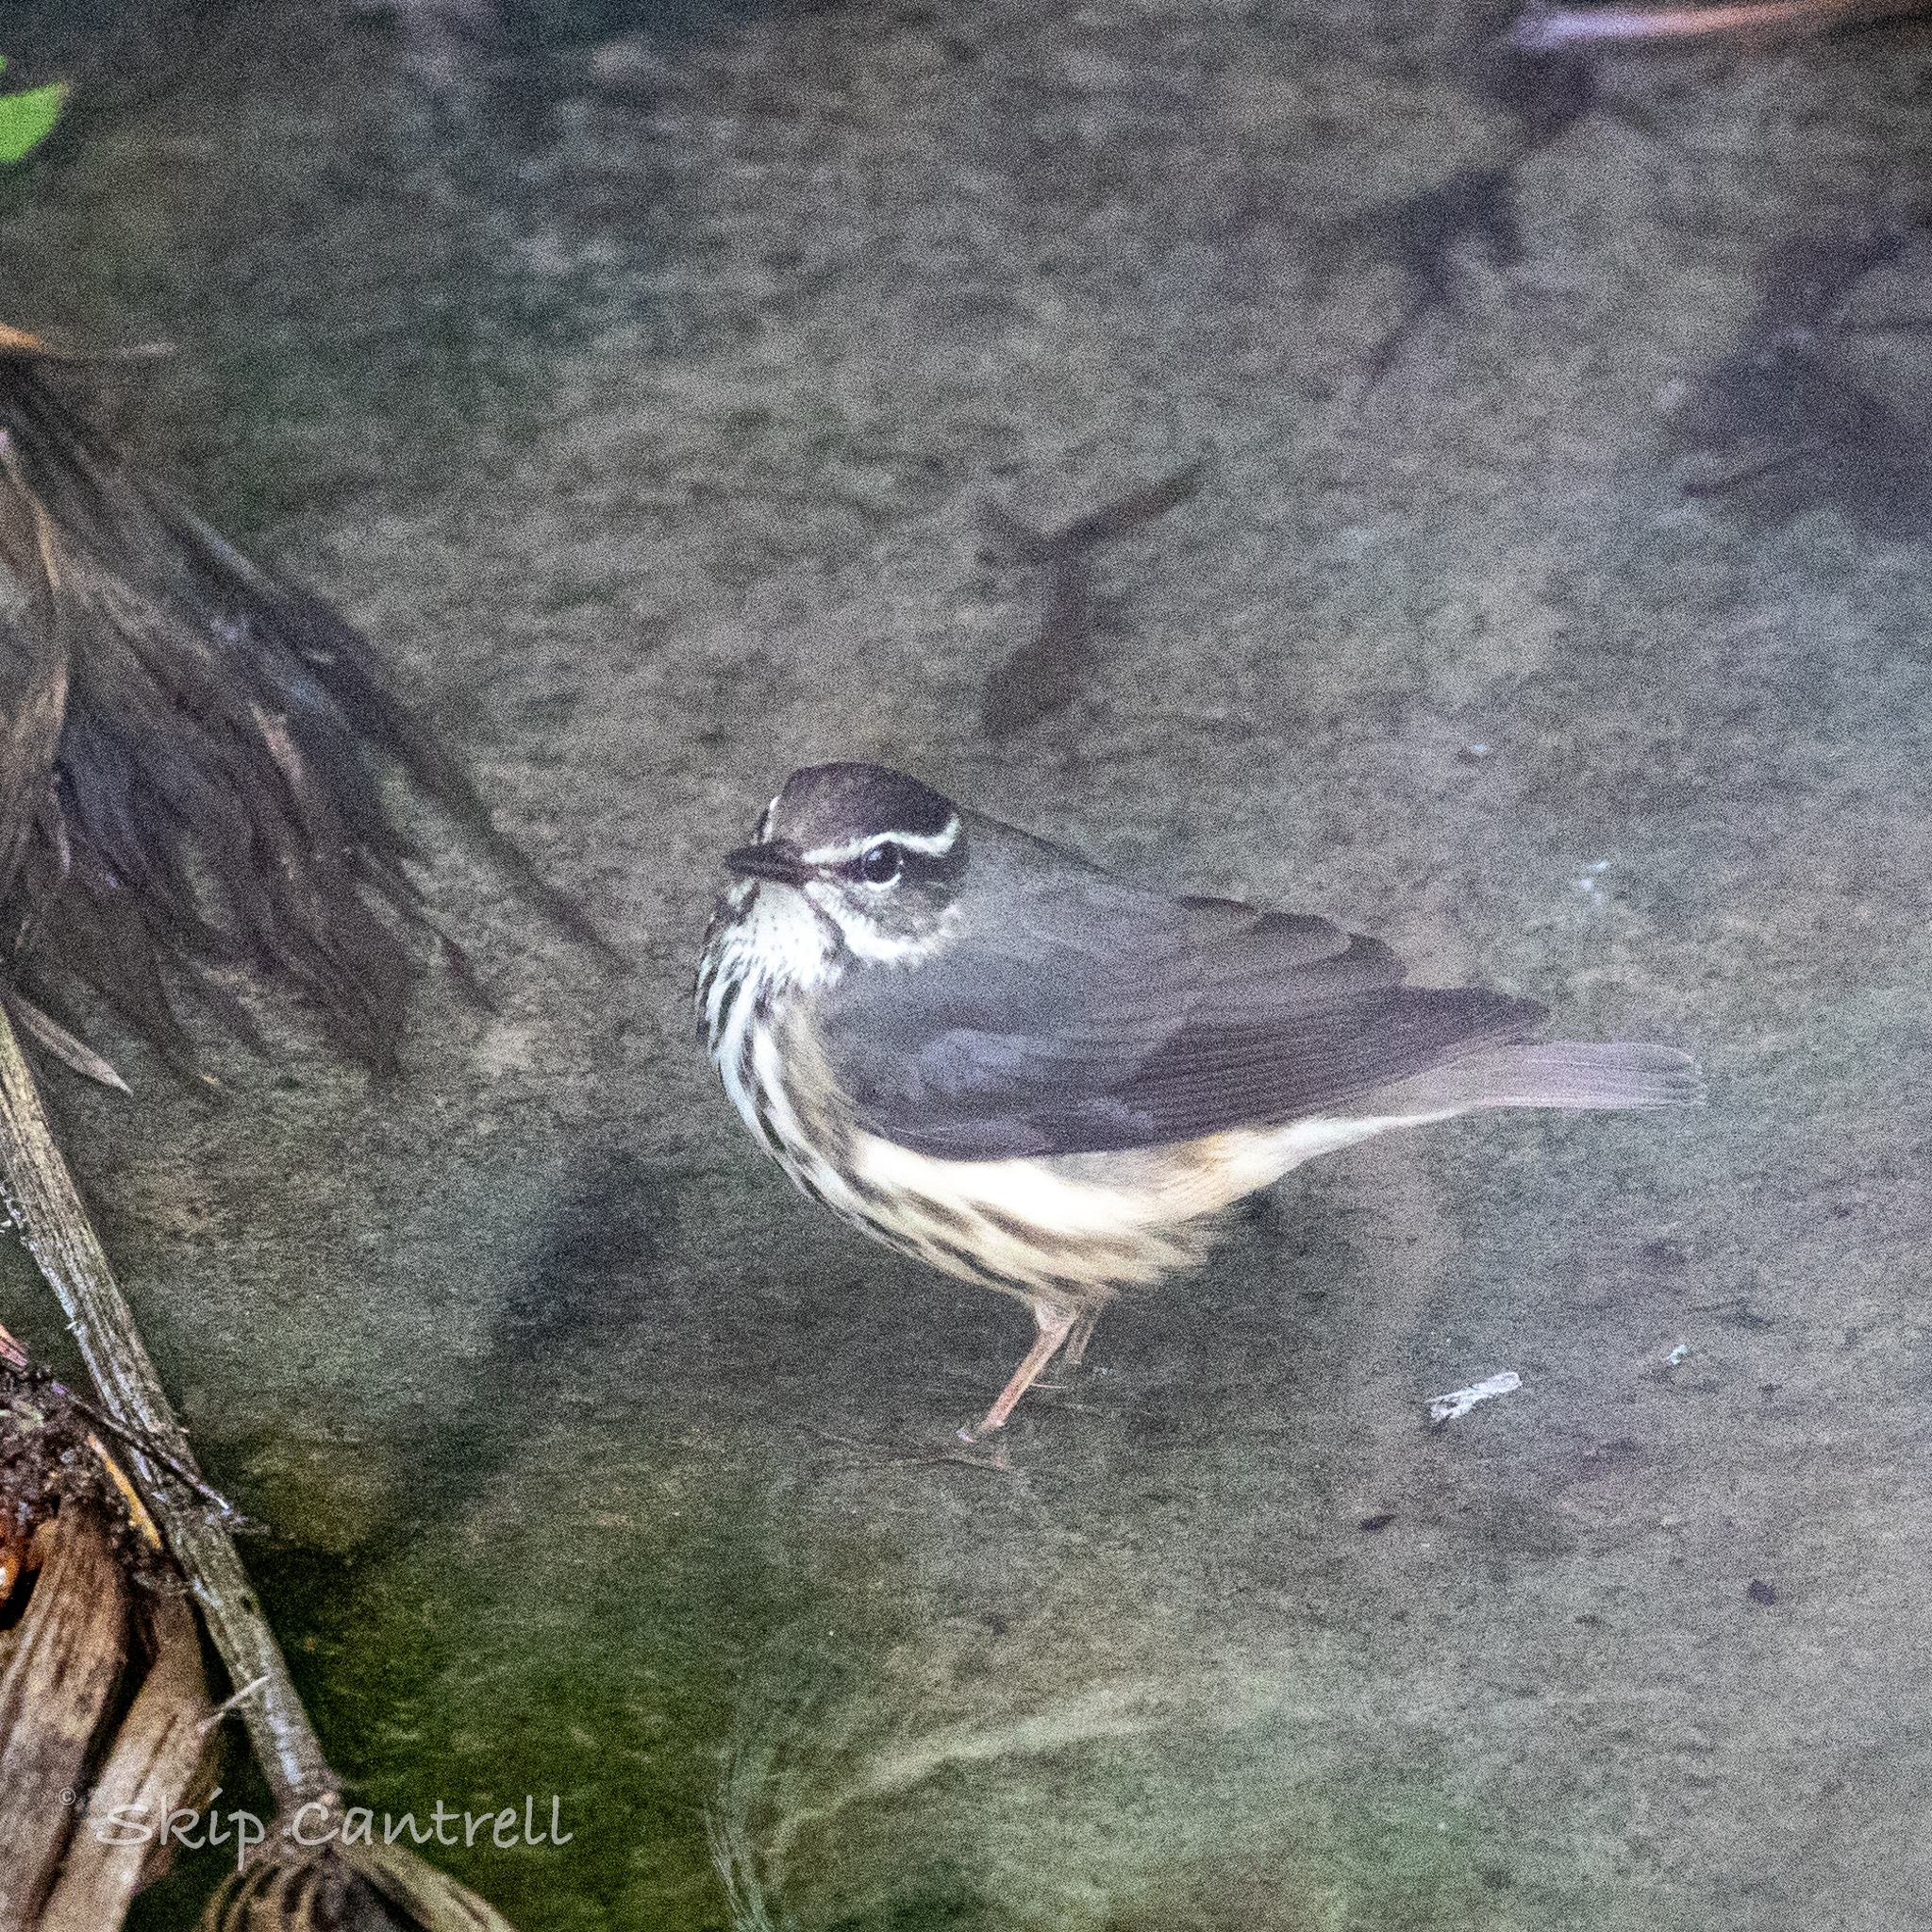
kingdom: Animalia
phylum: Chordata
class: Aves
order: Passeriformes
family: Parulidae
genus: Parkesia
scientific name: Parkesia motacilla
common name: Louisiana waterthrush
